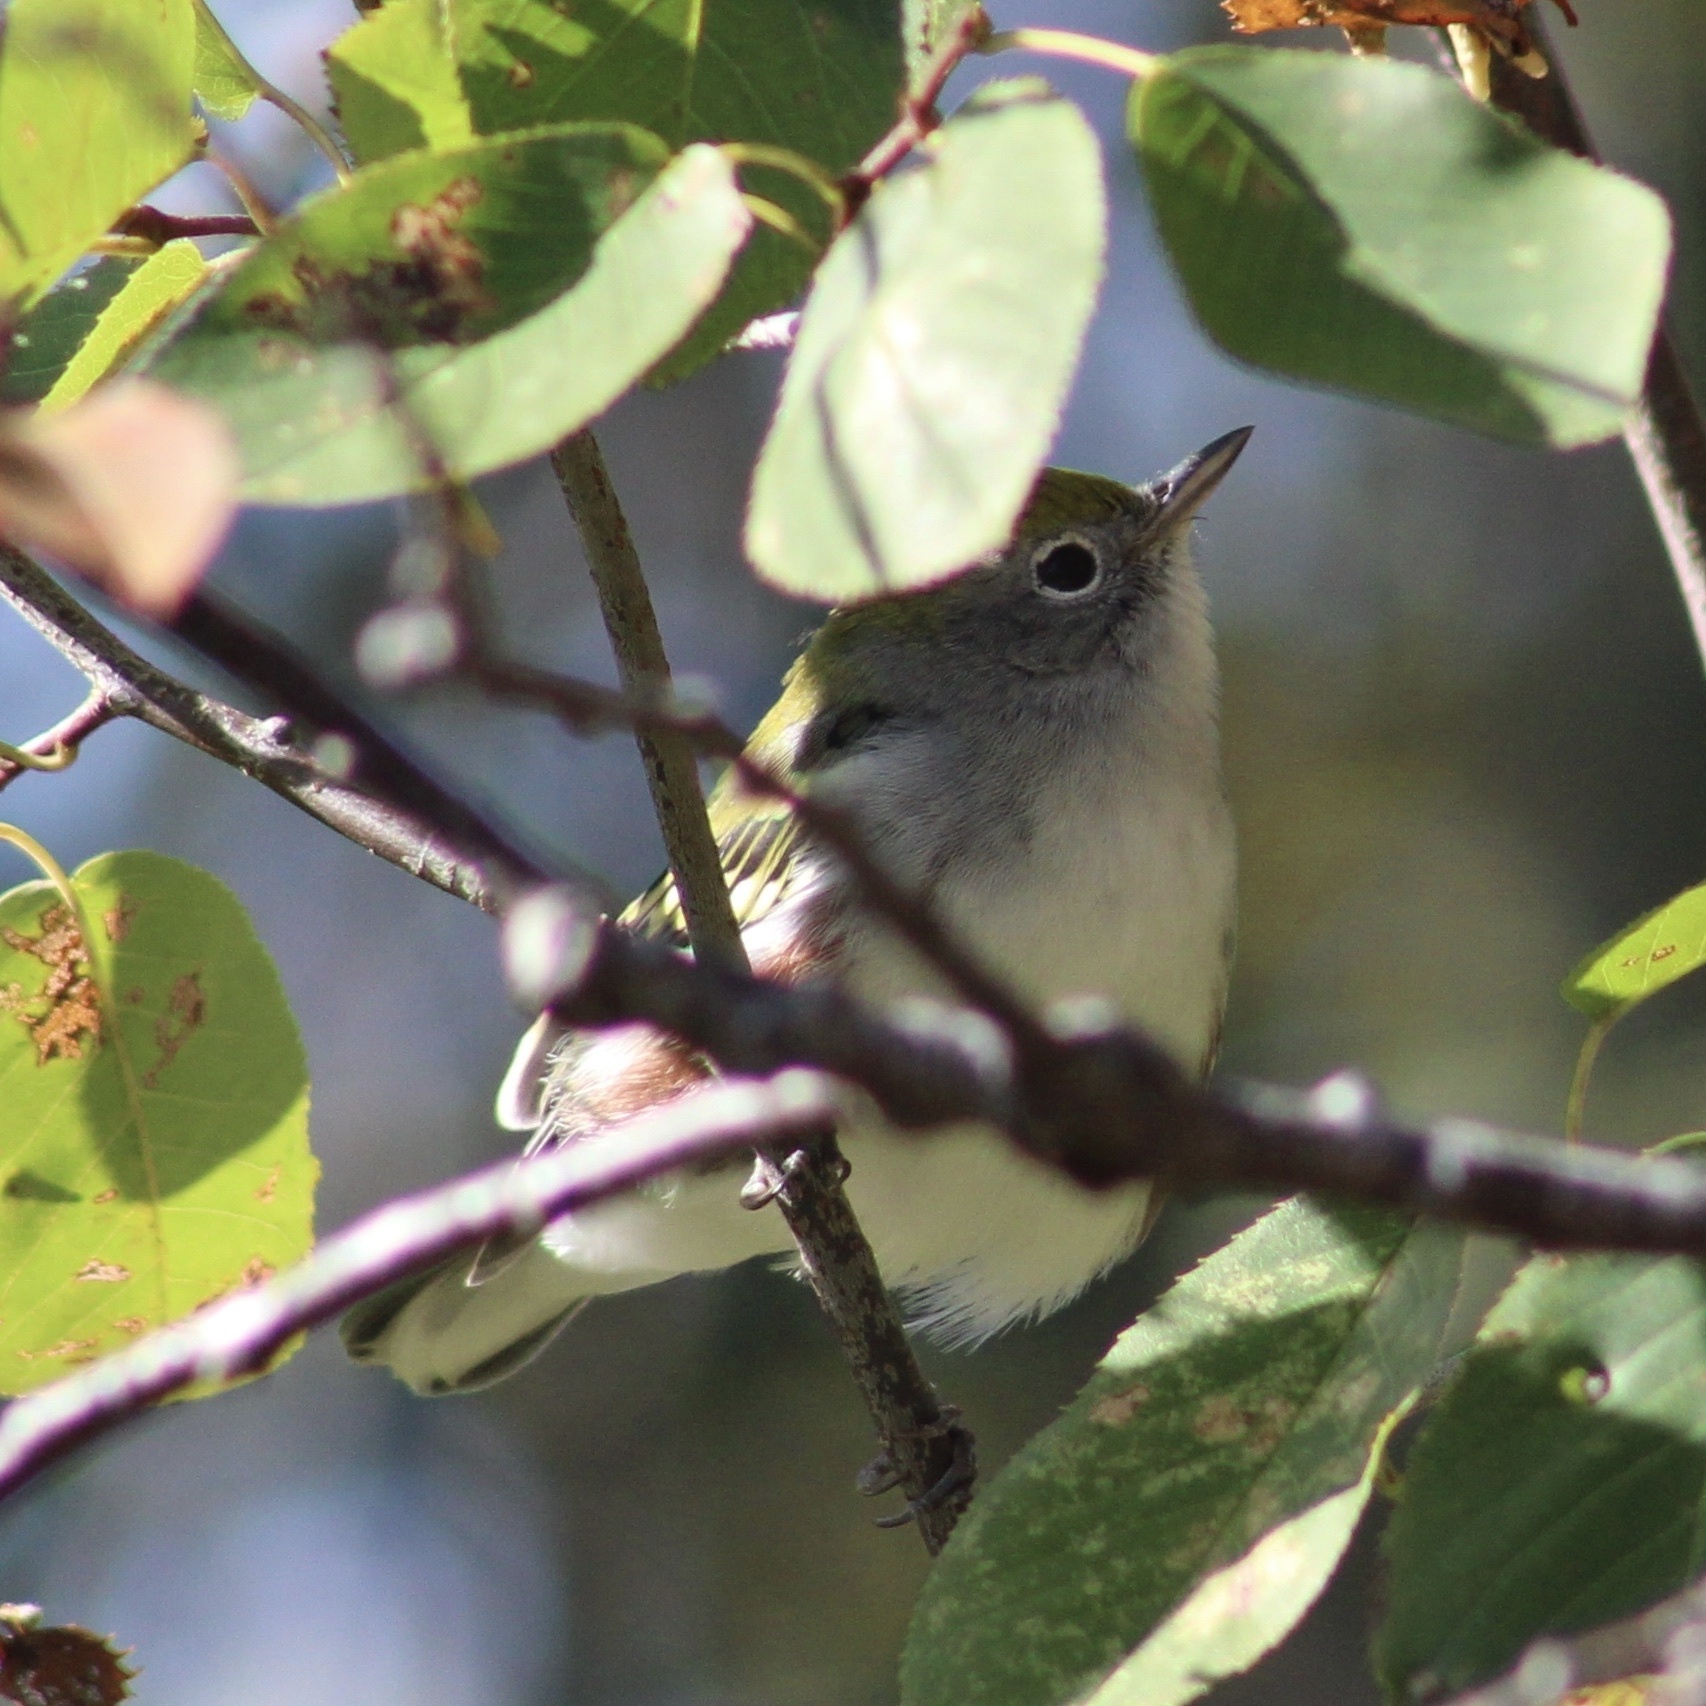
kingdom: Animalia
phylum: Chordata
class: Aves
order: Passeriformes
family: Parulidae
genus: Setophaga
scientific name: Setophaga pensylvanica
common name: Chestnut-sided warbler
